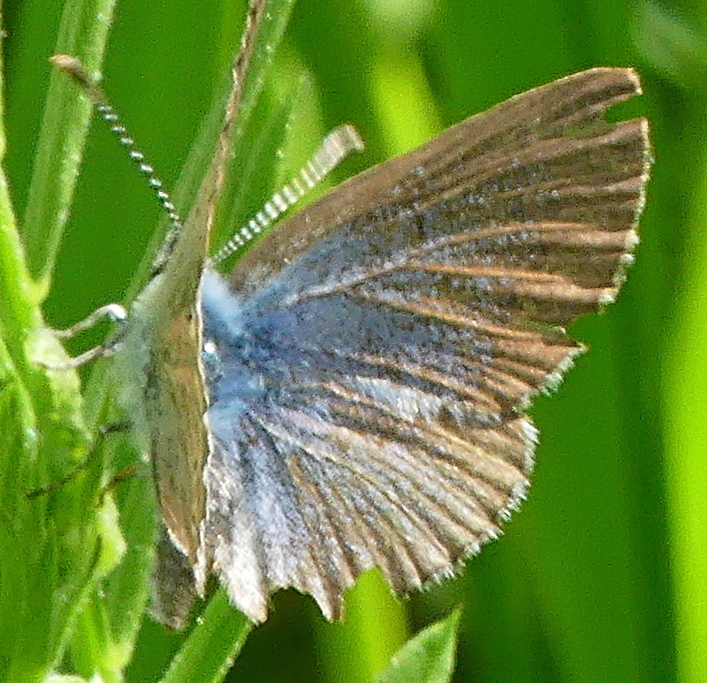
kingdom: Animalia
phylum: Arthropoda
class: Insecta
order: Lepidoptera
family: Lycaenidae
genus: Glaucopsyche
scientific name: Glaucopsyche lygdamus
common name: Silvery blue
